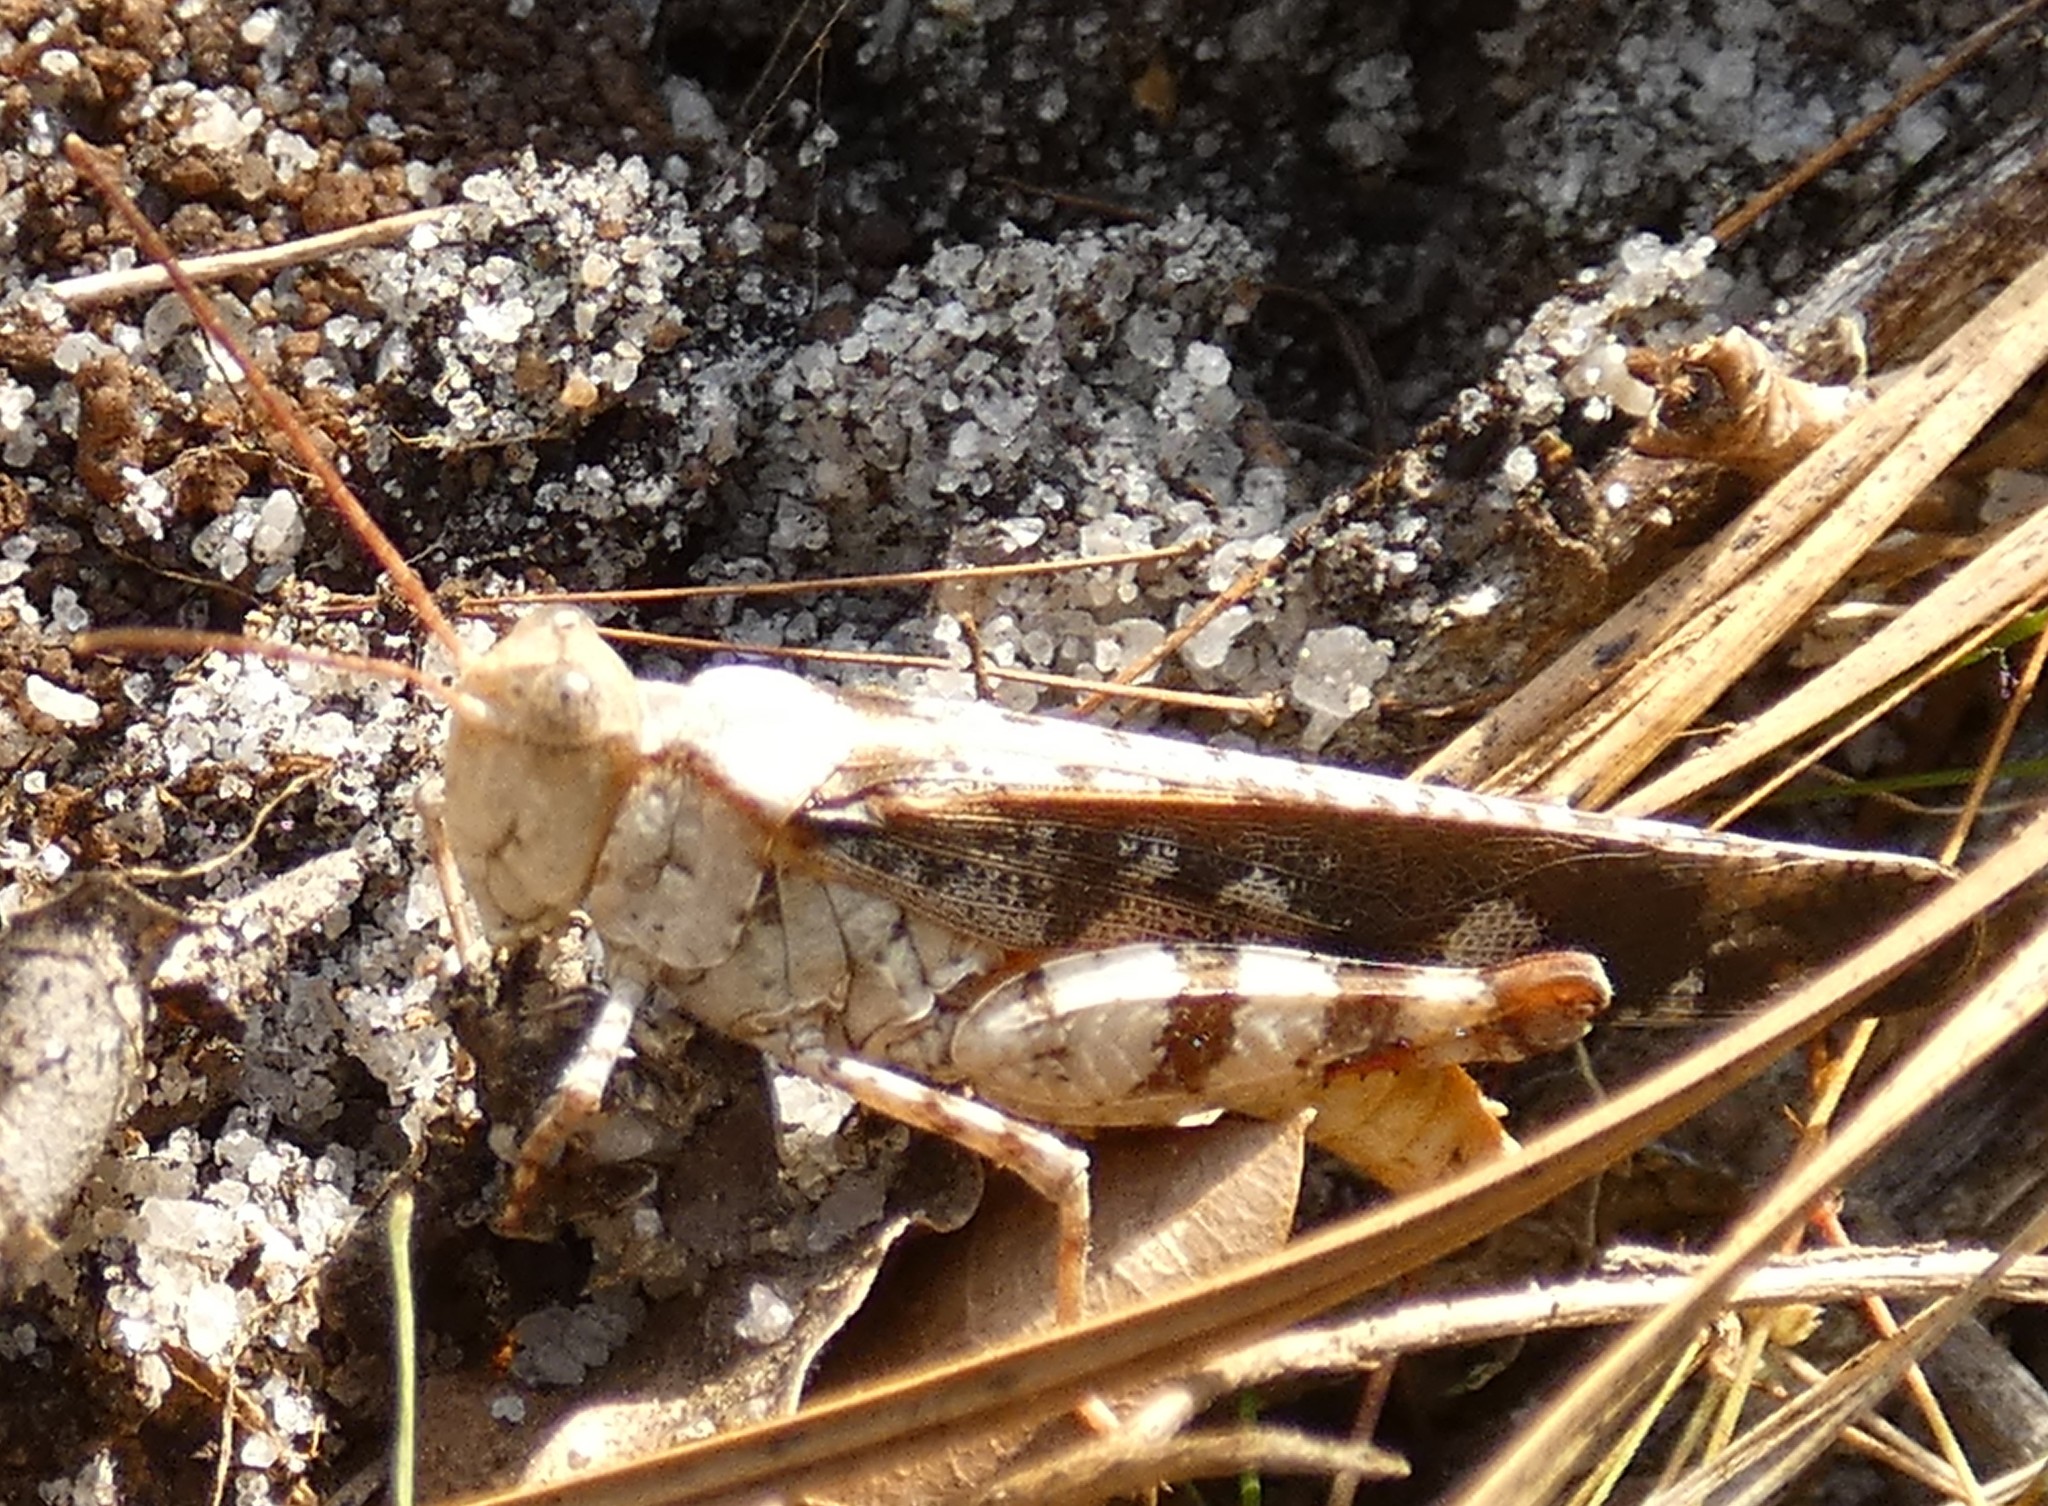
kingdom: Animalia
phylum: Arthropoda
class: Insecta
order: Orthoptera
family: Acrididae
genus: Spharagemon
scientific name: Spharagemon marmoratum
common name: Marbled grasshopper
